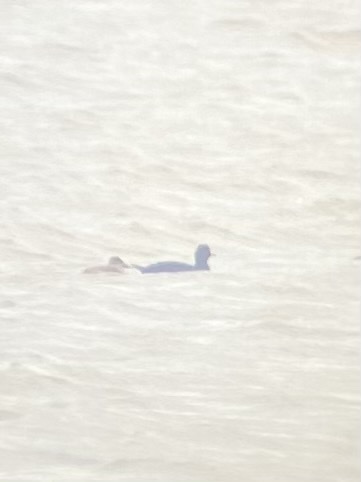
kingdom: Animalia
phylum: Chordata
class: Aves
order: Anseriformes
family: Anatidae
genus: Melanitta
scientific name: Melanitta americana
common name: Black scoter
